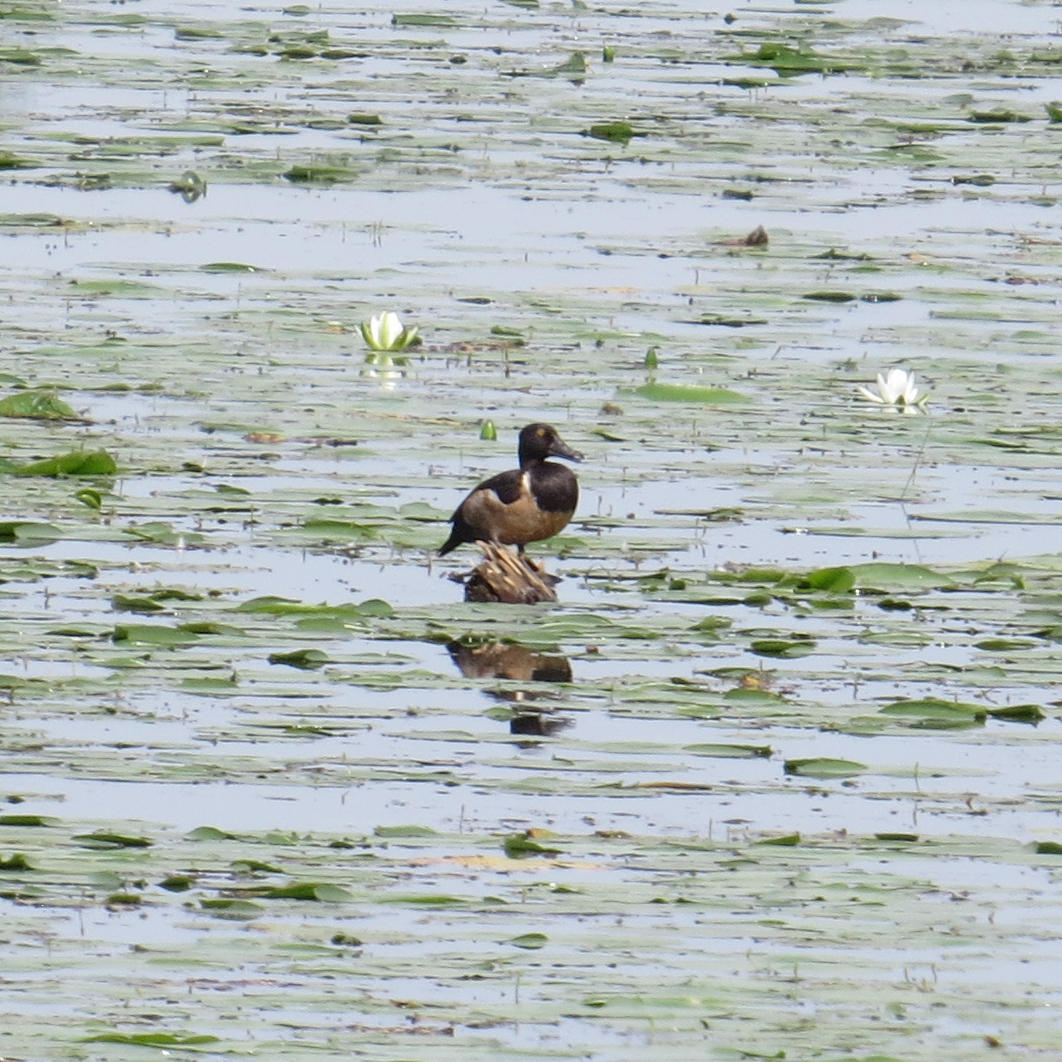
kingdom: Animalia
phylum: Chordata
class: Aves
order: Anseriformes
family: Anatidae
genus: Aythya
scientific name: Aythya collaris
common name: Ring-necked duck
